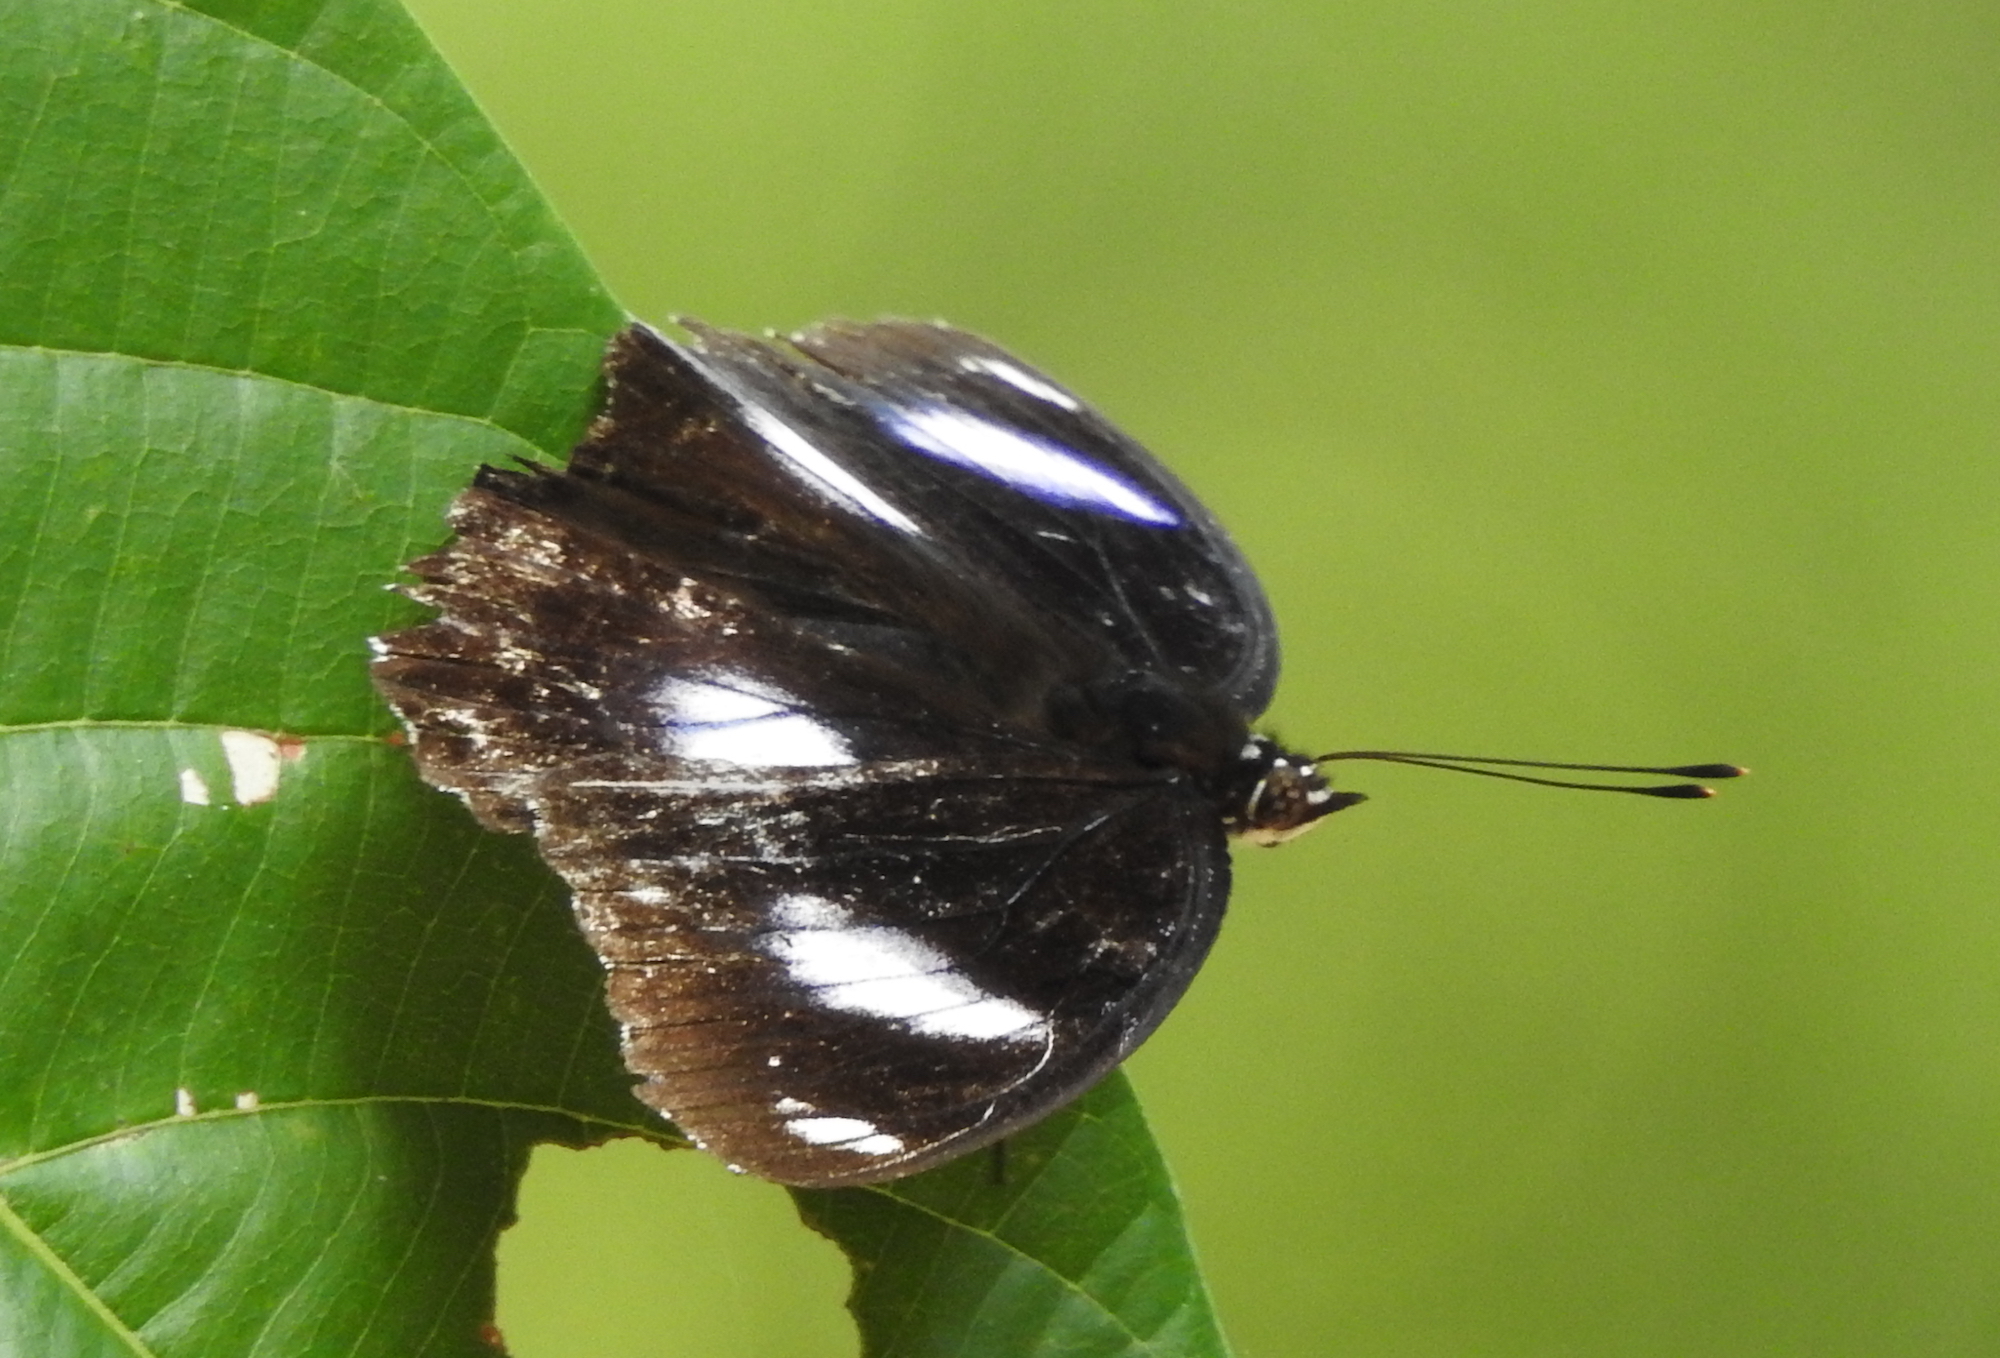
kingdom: Animalia
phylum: Arthropoda
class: Insecta
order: Lepidoptera
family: Nymphalidae
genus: Hypolimnas
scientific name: Hypolimnas bolina
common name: Great eggfly
